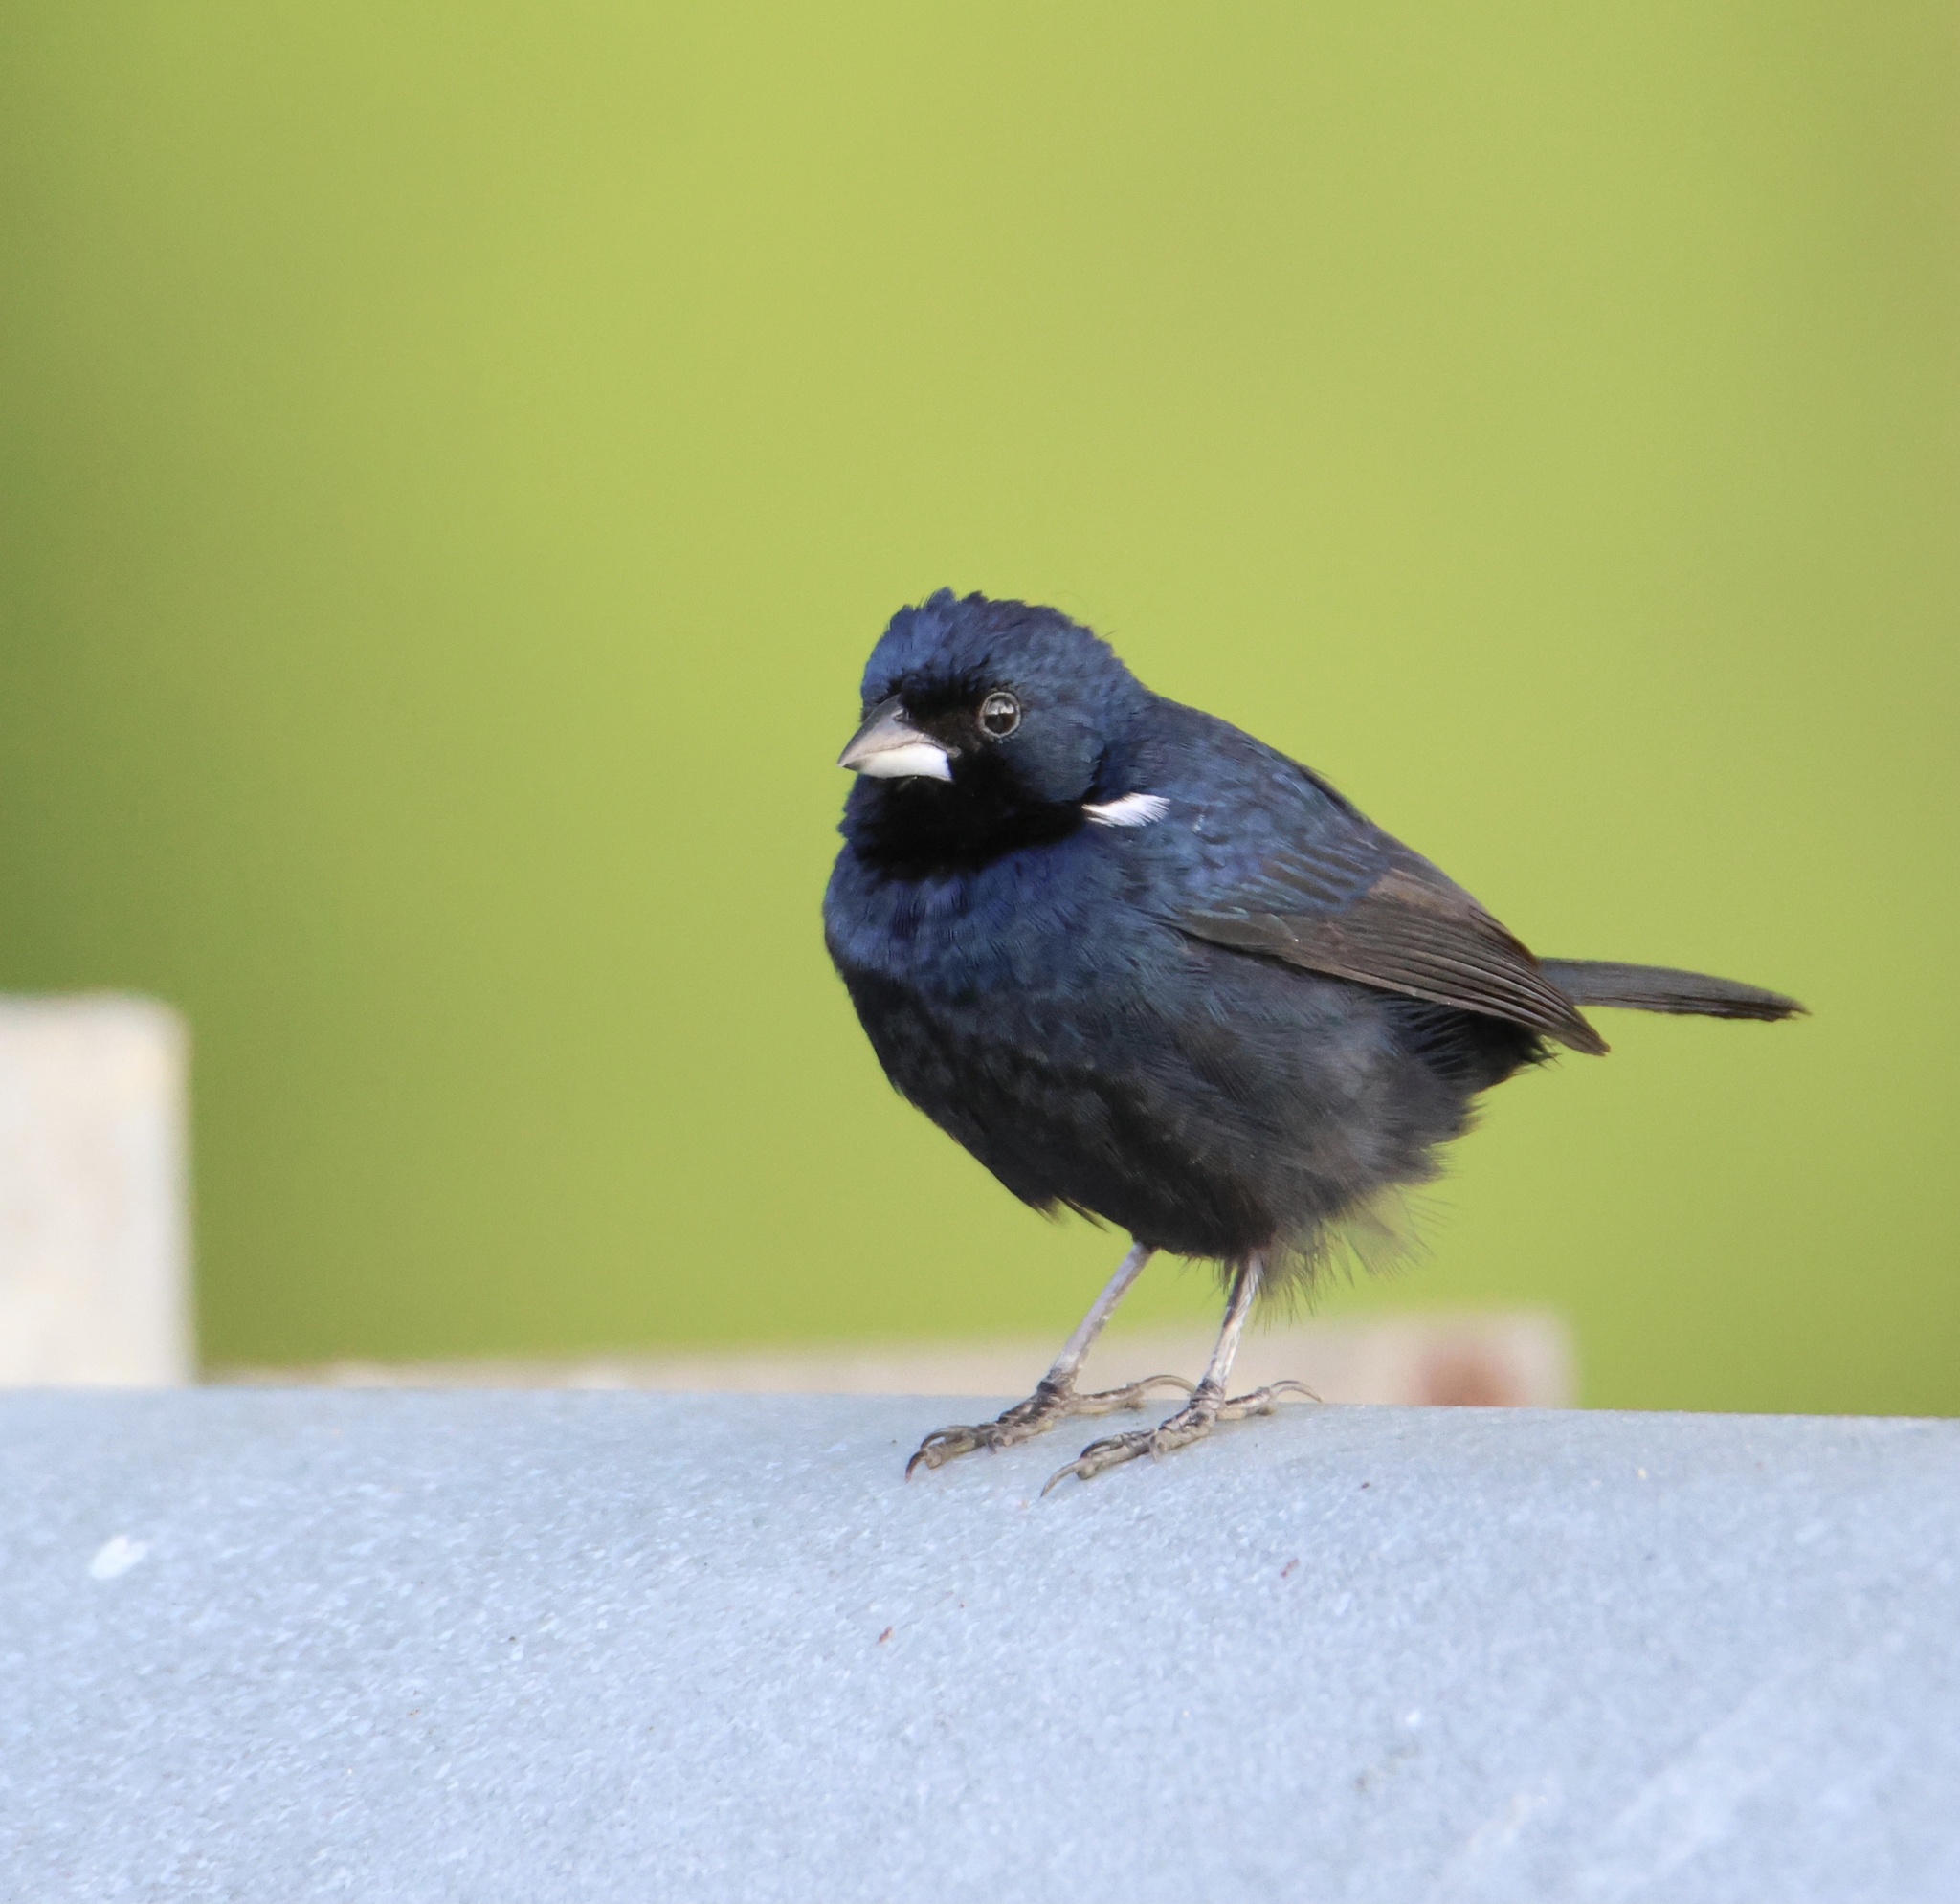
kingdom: Animalia
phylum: Chordata
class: Aves
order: Passeriformes
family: Thraupidae
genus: Volatinia
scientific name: Volatinia jacarina
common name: Blue-black grassquit
